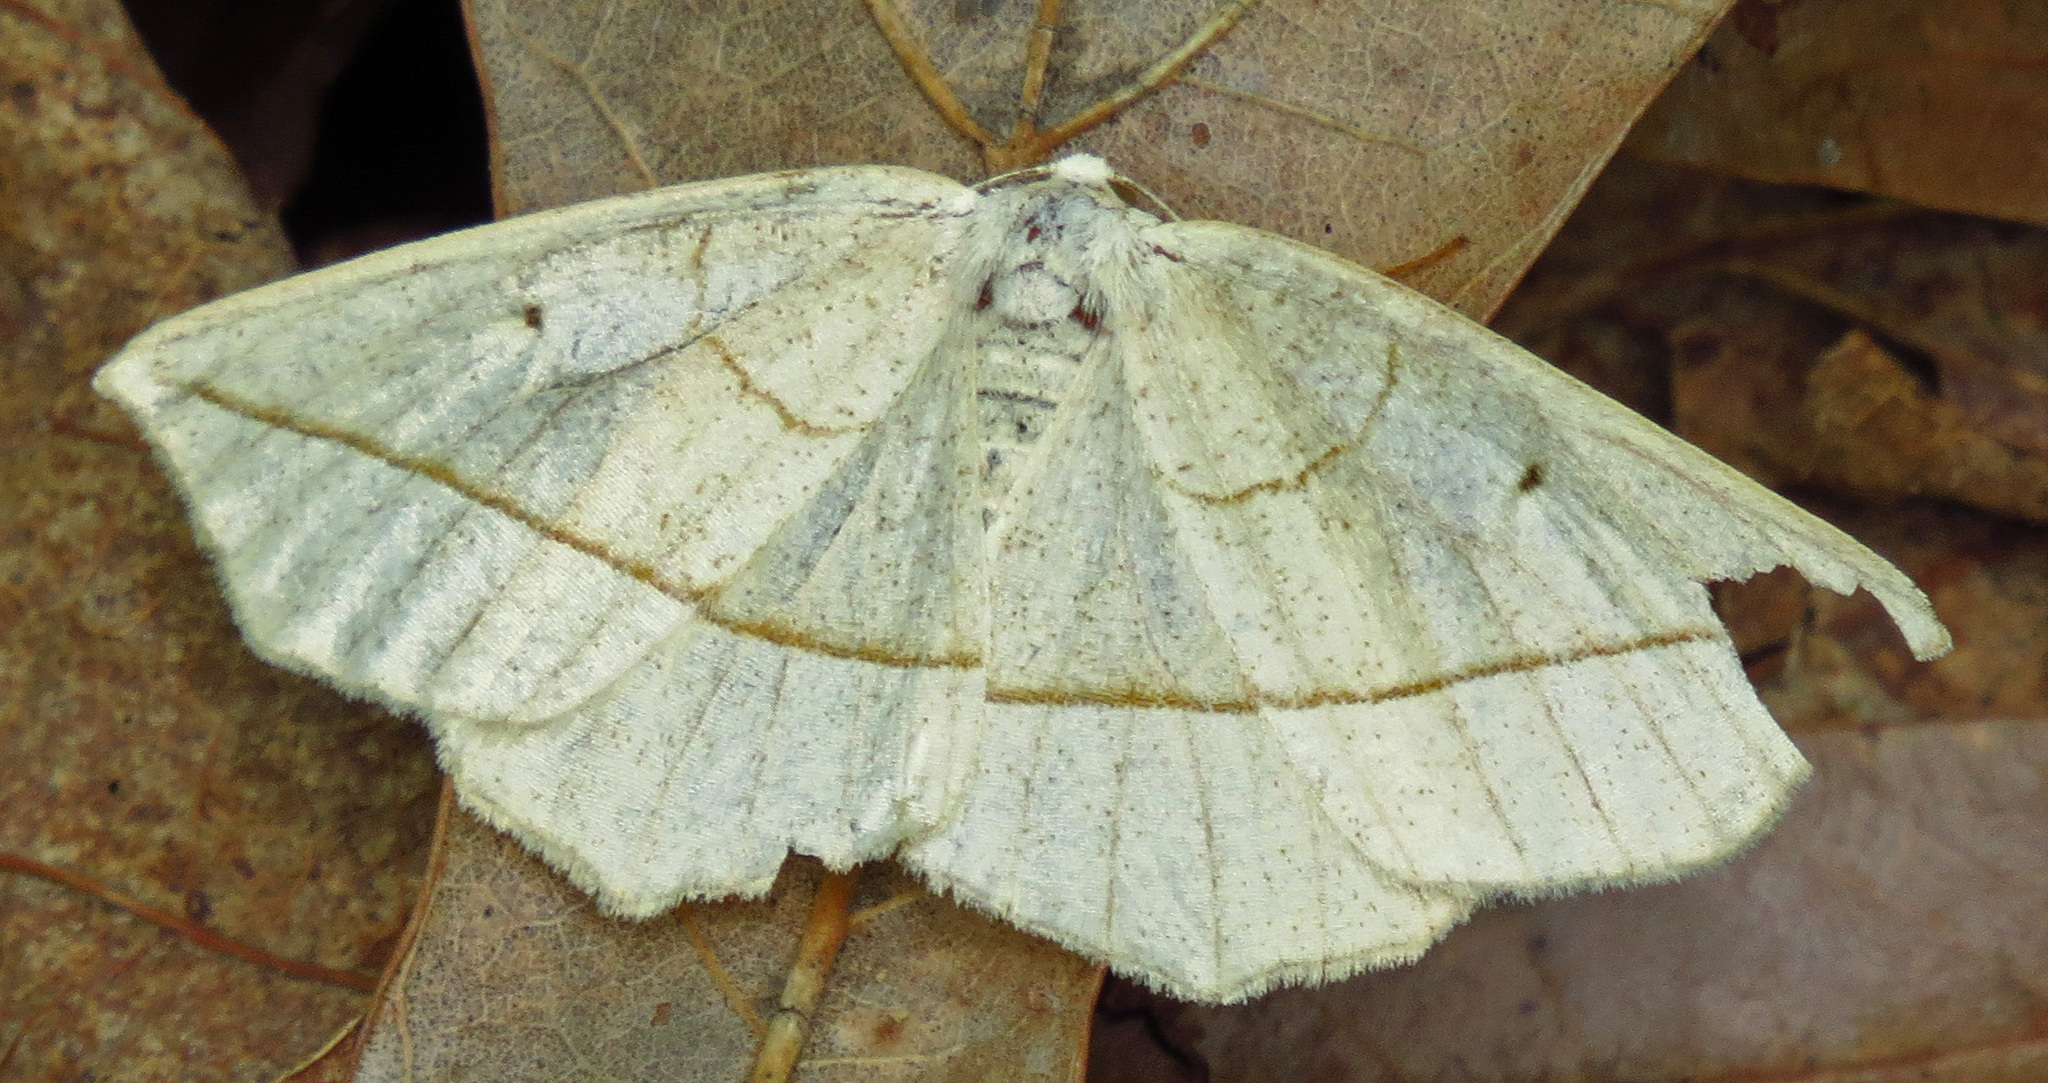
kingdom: Animalia
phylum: Arthropoda
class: Insecta
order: Lepidoptera
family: Geometridae
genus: Eusarca
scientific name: Eusarca confusaria
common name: Confused eusarca
